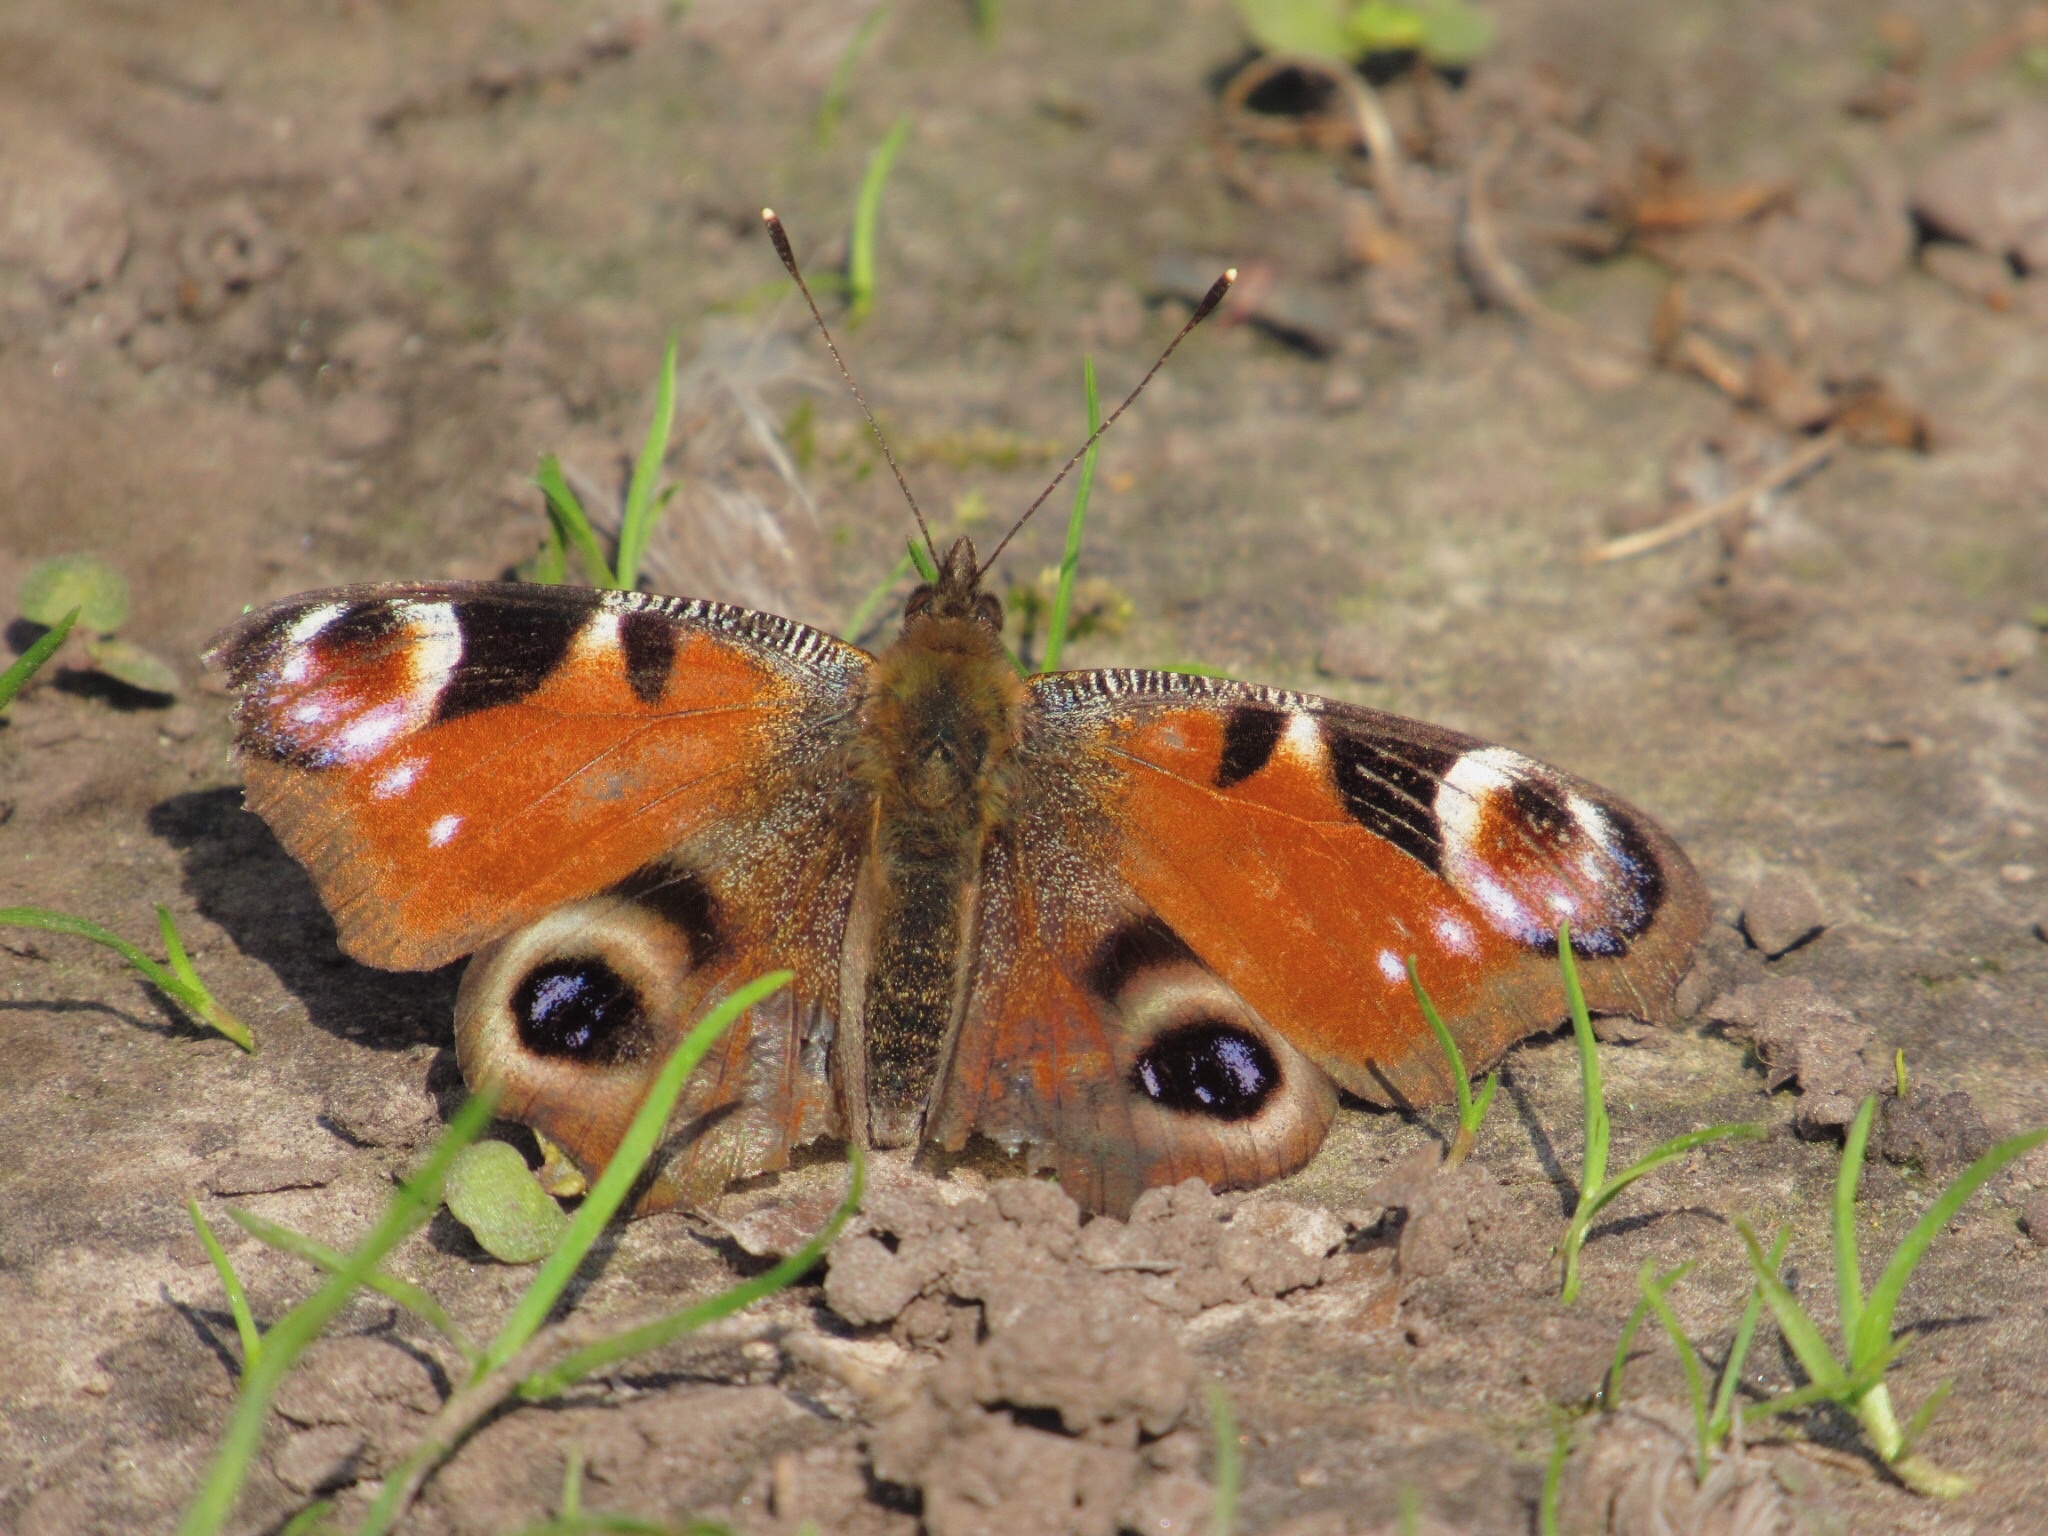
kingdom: Animalia
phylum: Arthropoda
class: Insecta
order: Lepidoptera
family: Nymphalidae
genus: Aglais
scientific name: Aglais io
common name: Peacock
